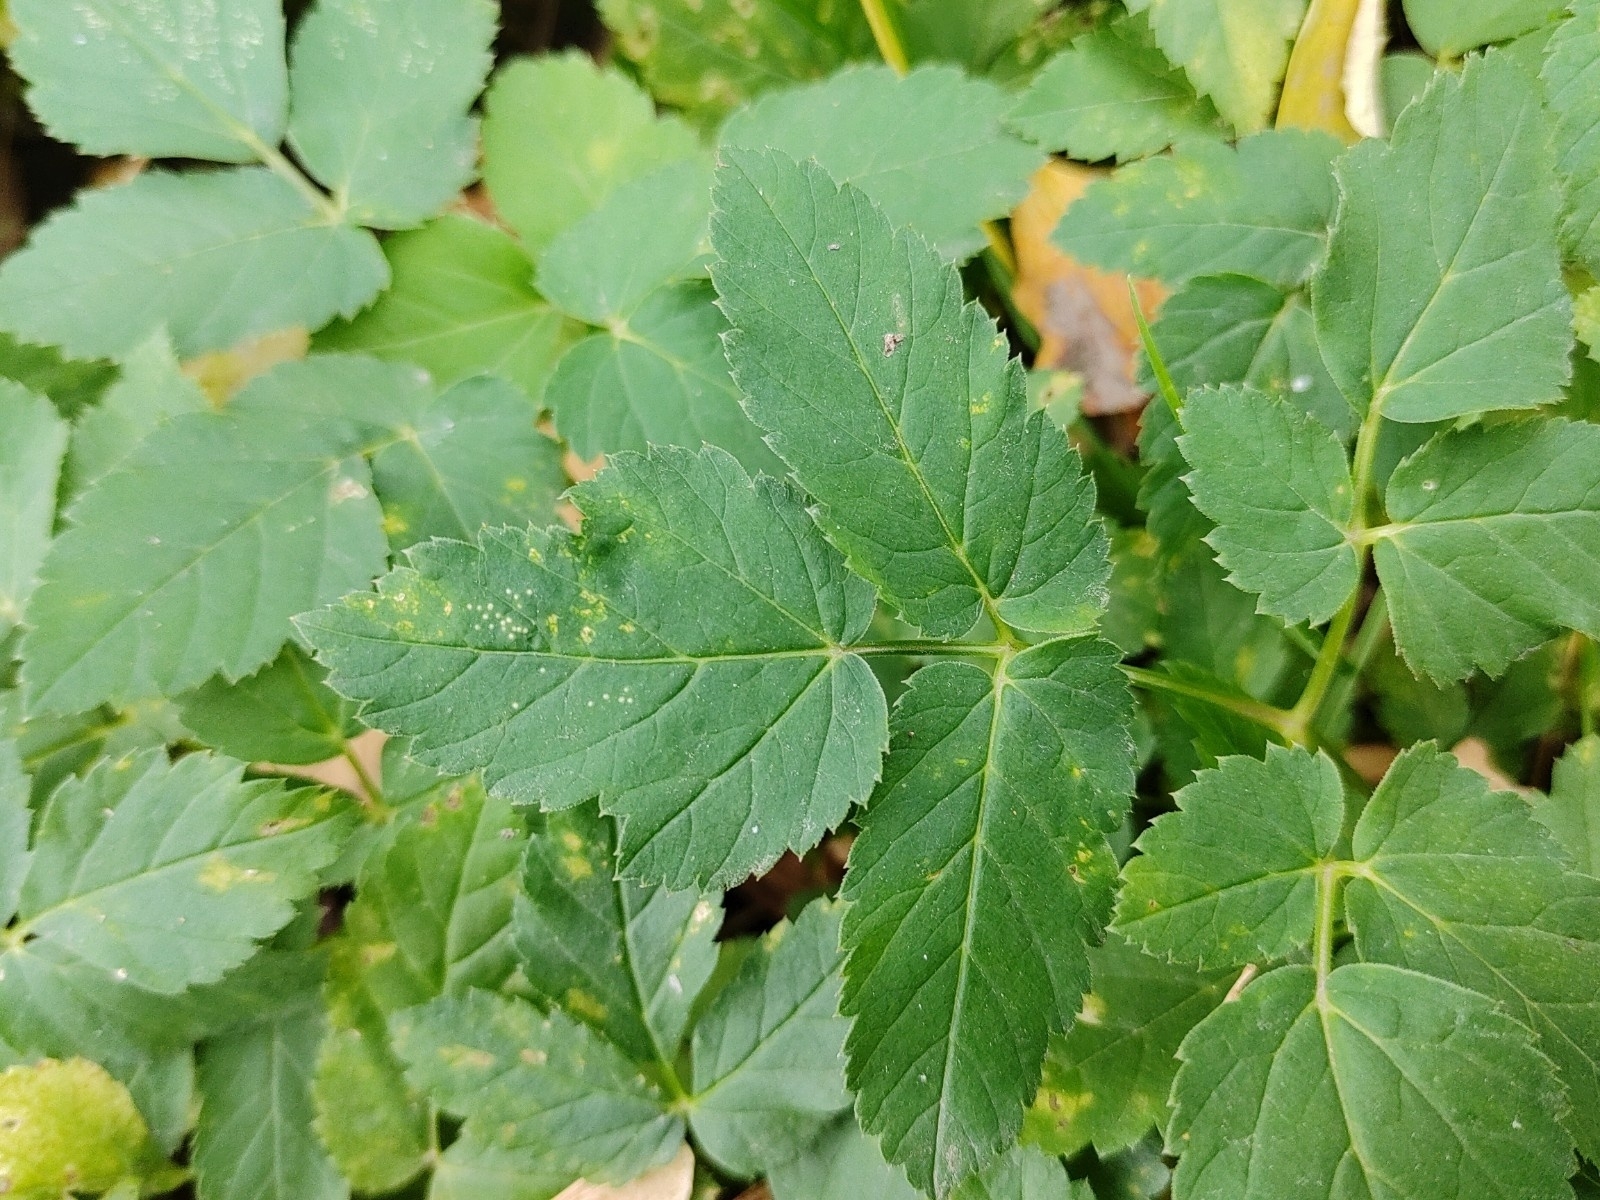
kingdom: Plantae
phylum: Tracheophyta
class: Magnoliopsida
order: Apiales
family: Apiaceae
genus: Aegopodium
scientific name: Aegopodium podagraria
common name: Ground-elder
